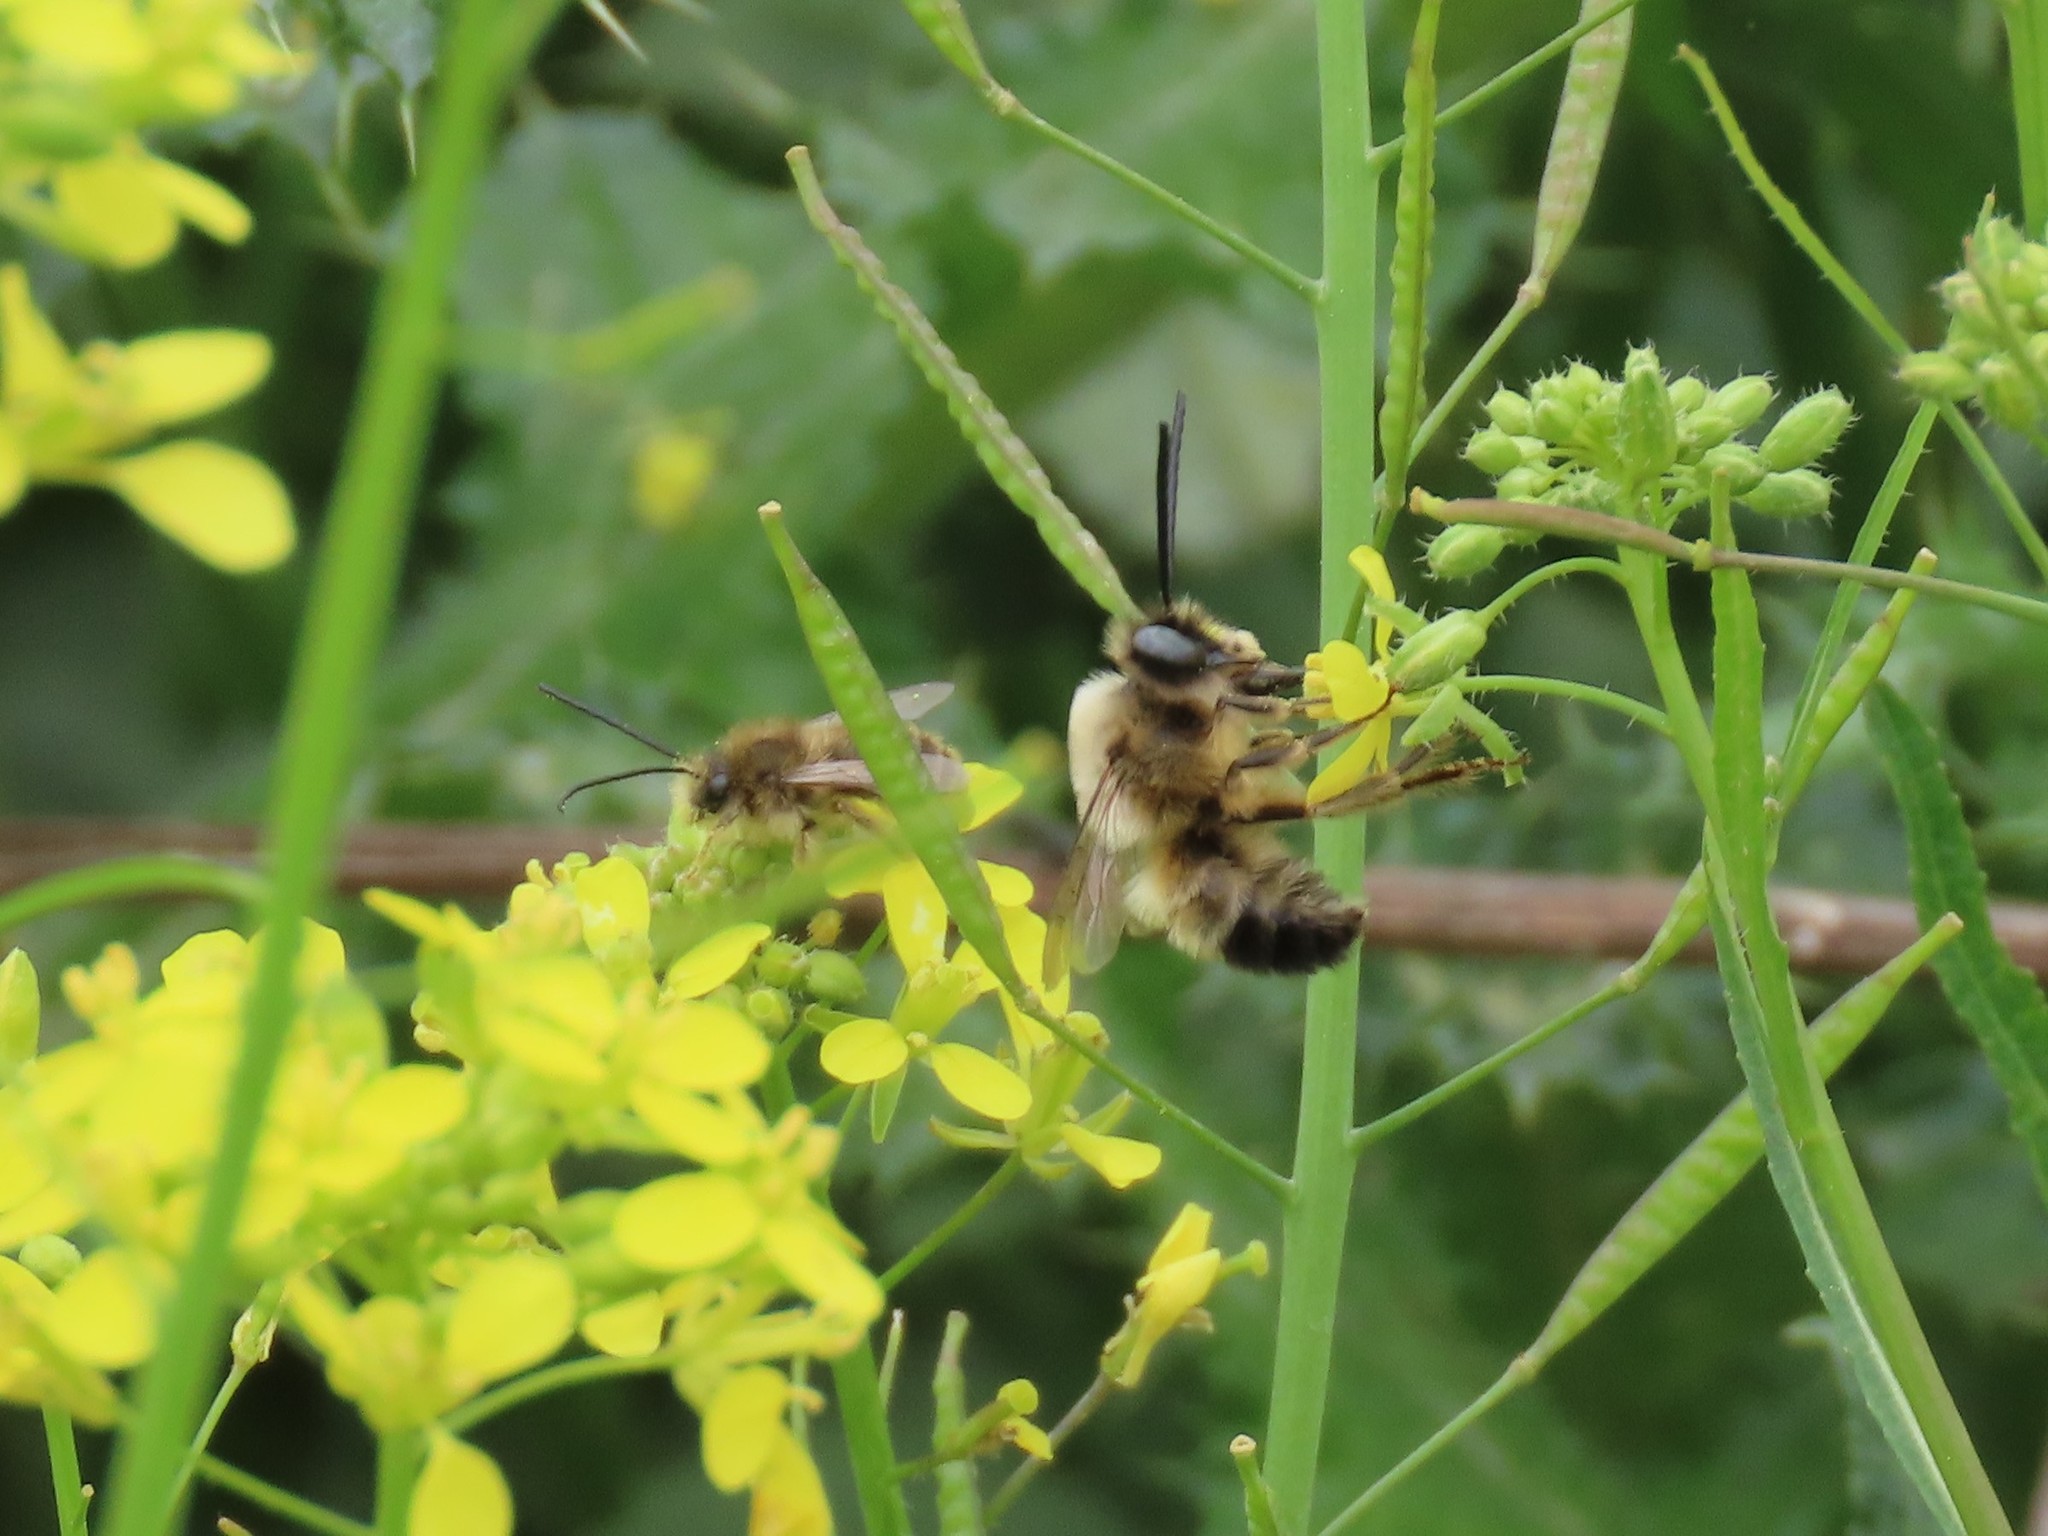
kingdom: Animalia
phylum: Arthropoda
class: Insecta
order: Hymenoptera
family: Apidae
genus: Eucera
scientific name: Eucera nigrilabris
